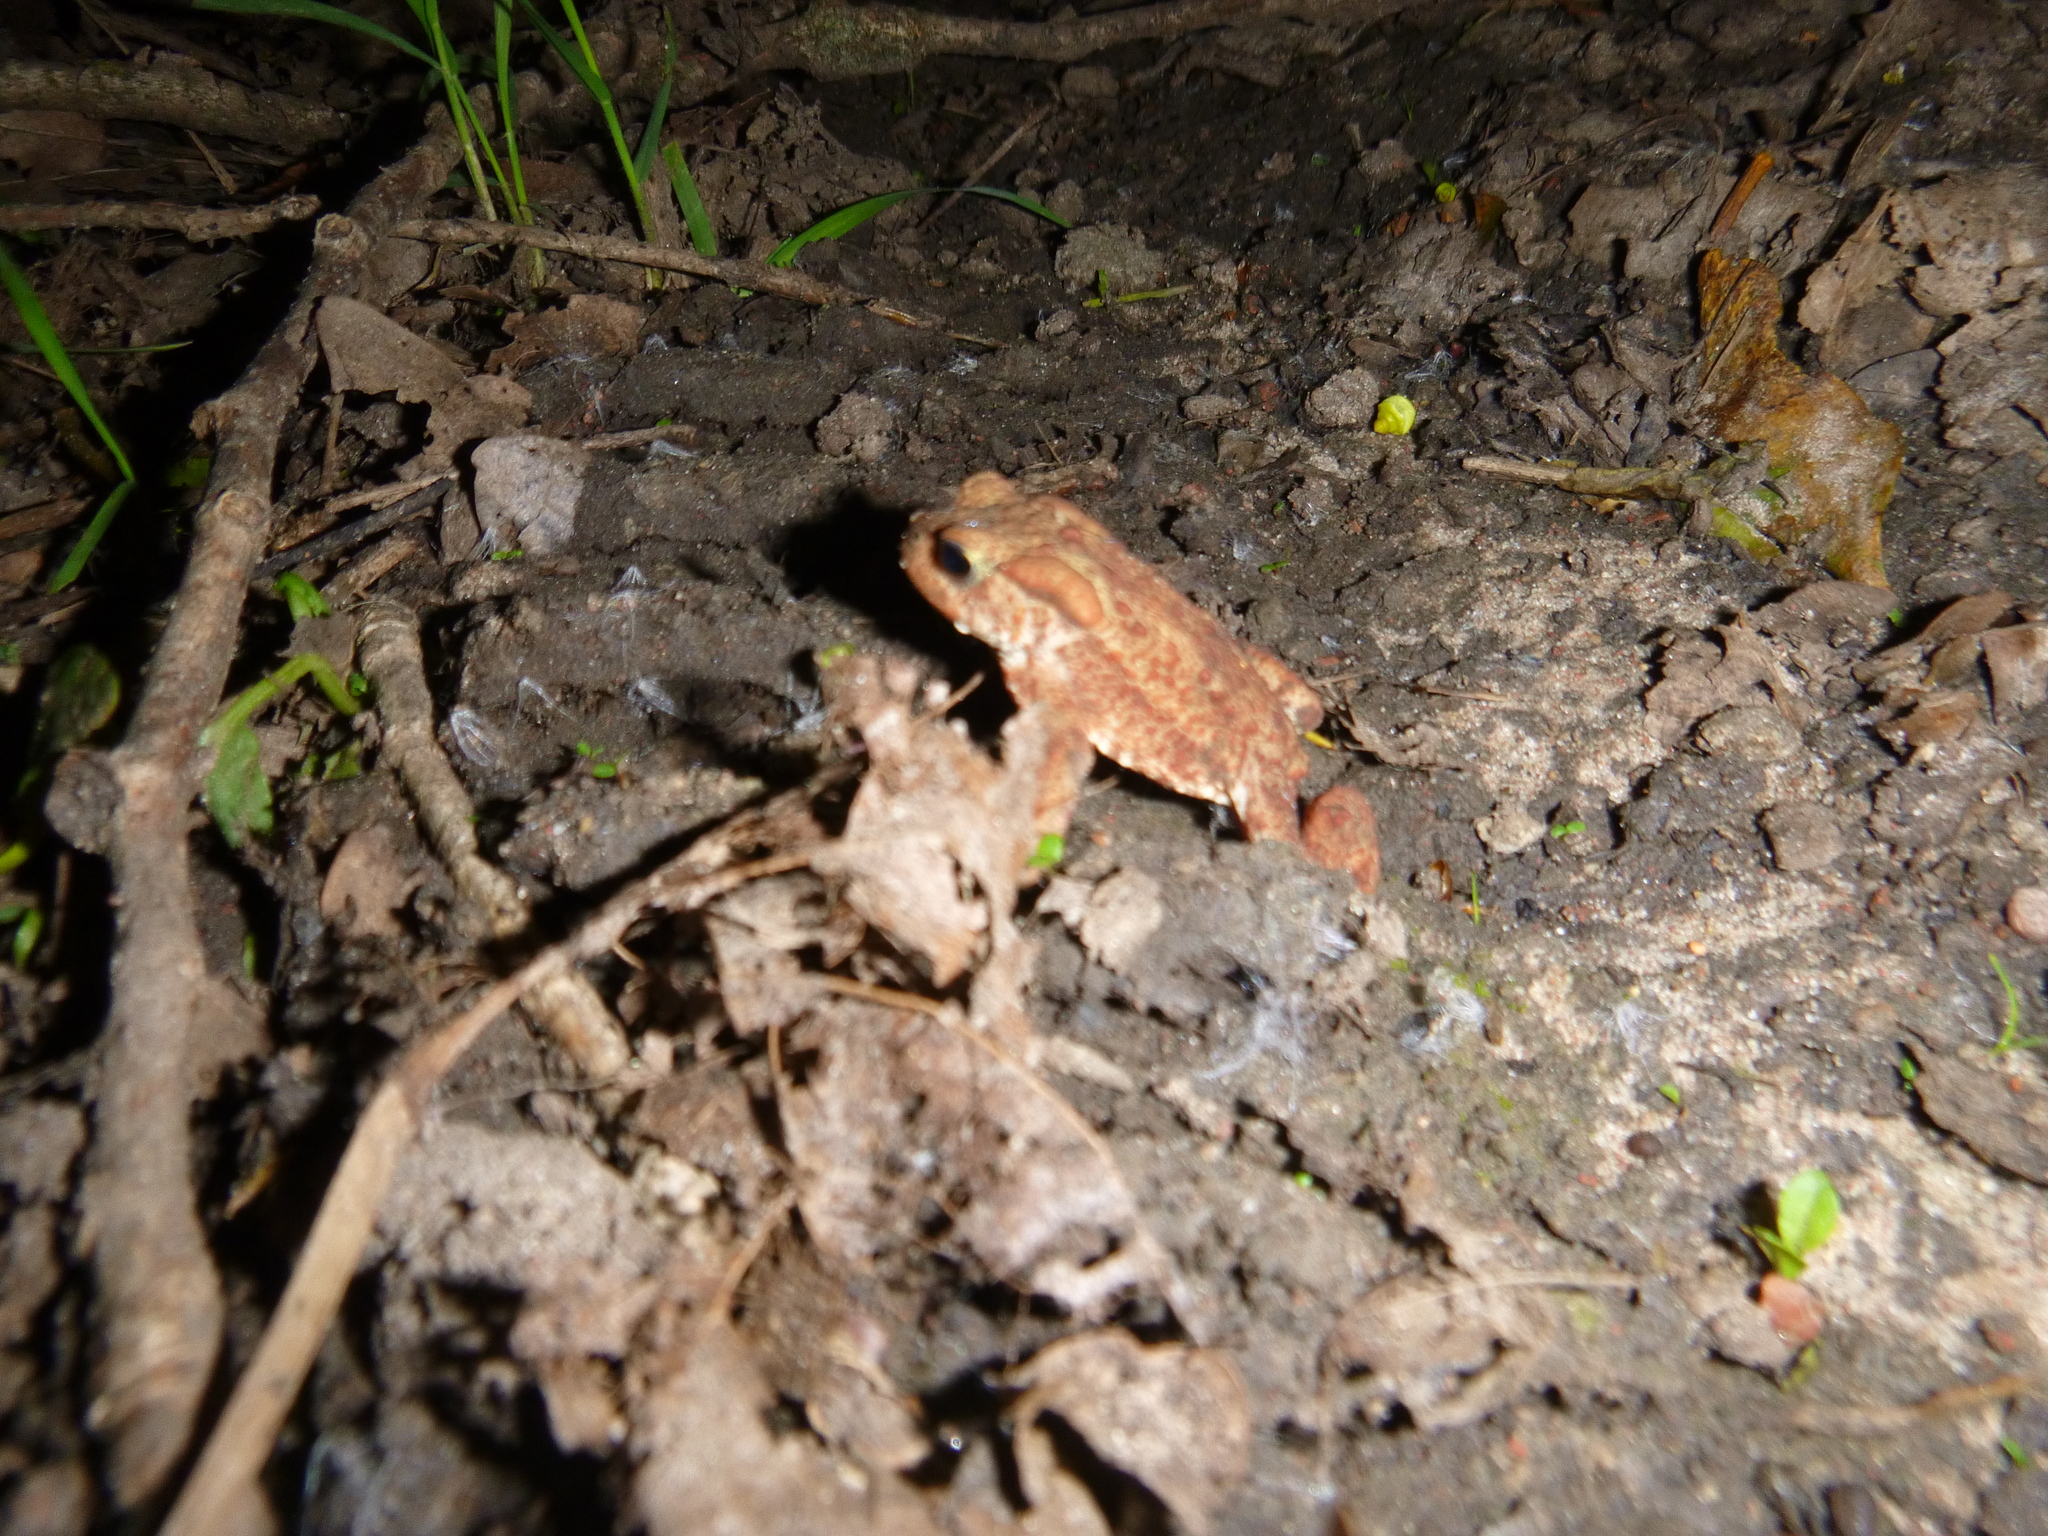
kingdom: Animalia
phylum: Chordata
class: Amphibia
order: Anura
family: Bufonidae
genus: Bufo
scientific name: Bufo bufo
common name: Common toad
